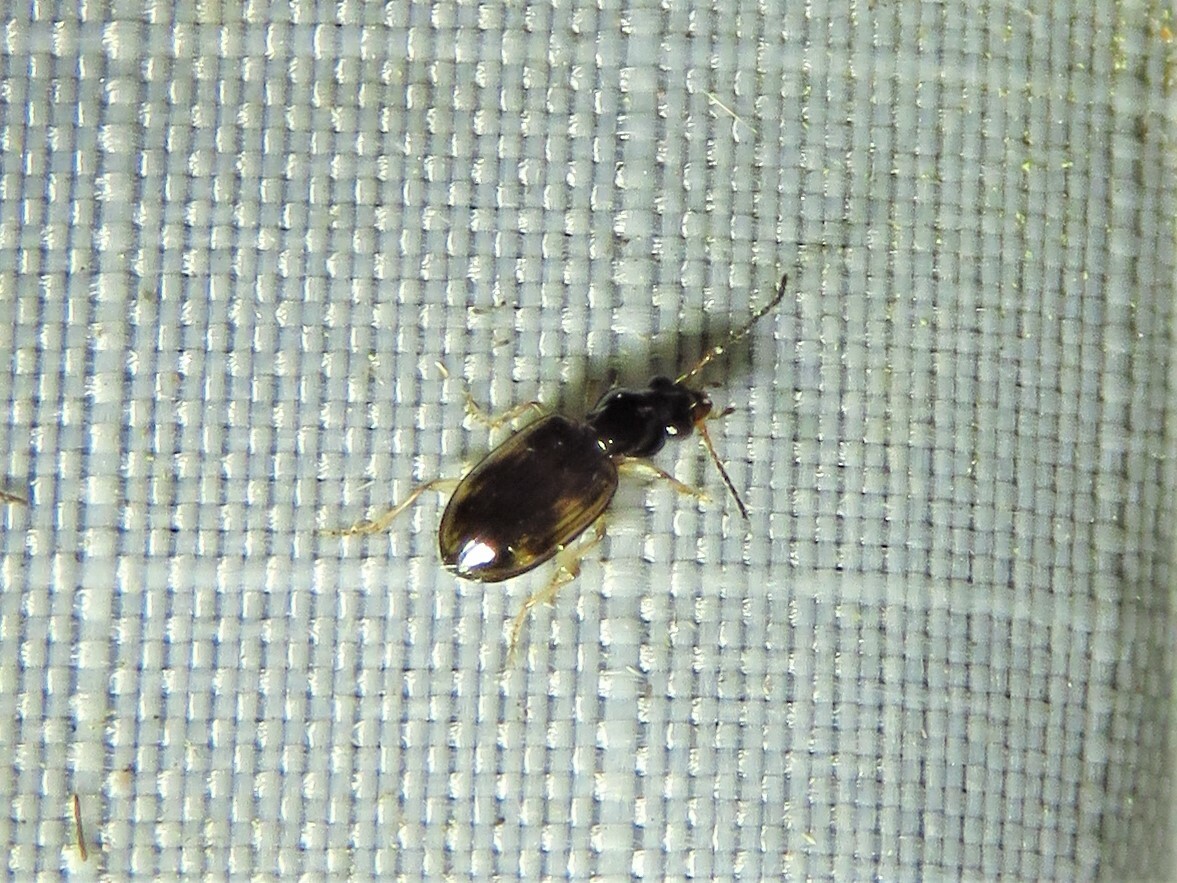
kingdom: Animalia
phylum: Arthropoda
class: Insecta
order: Coleoptera
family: Carabidae
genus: Bembidion
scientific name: Bembidion affine
